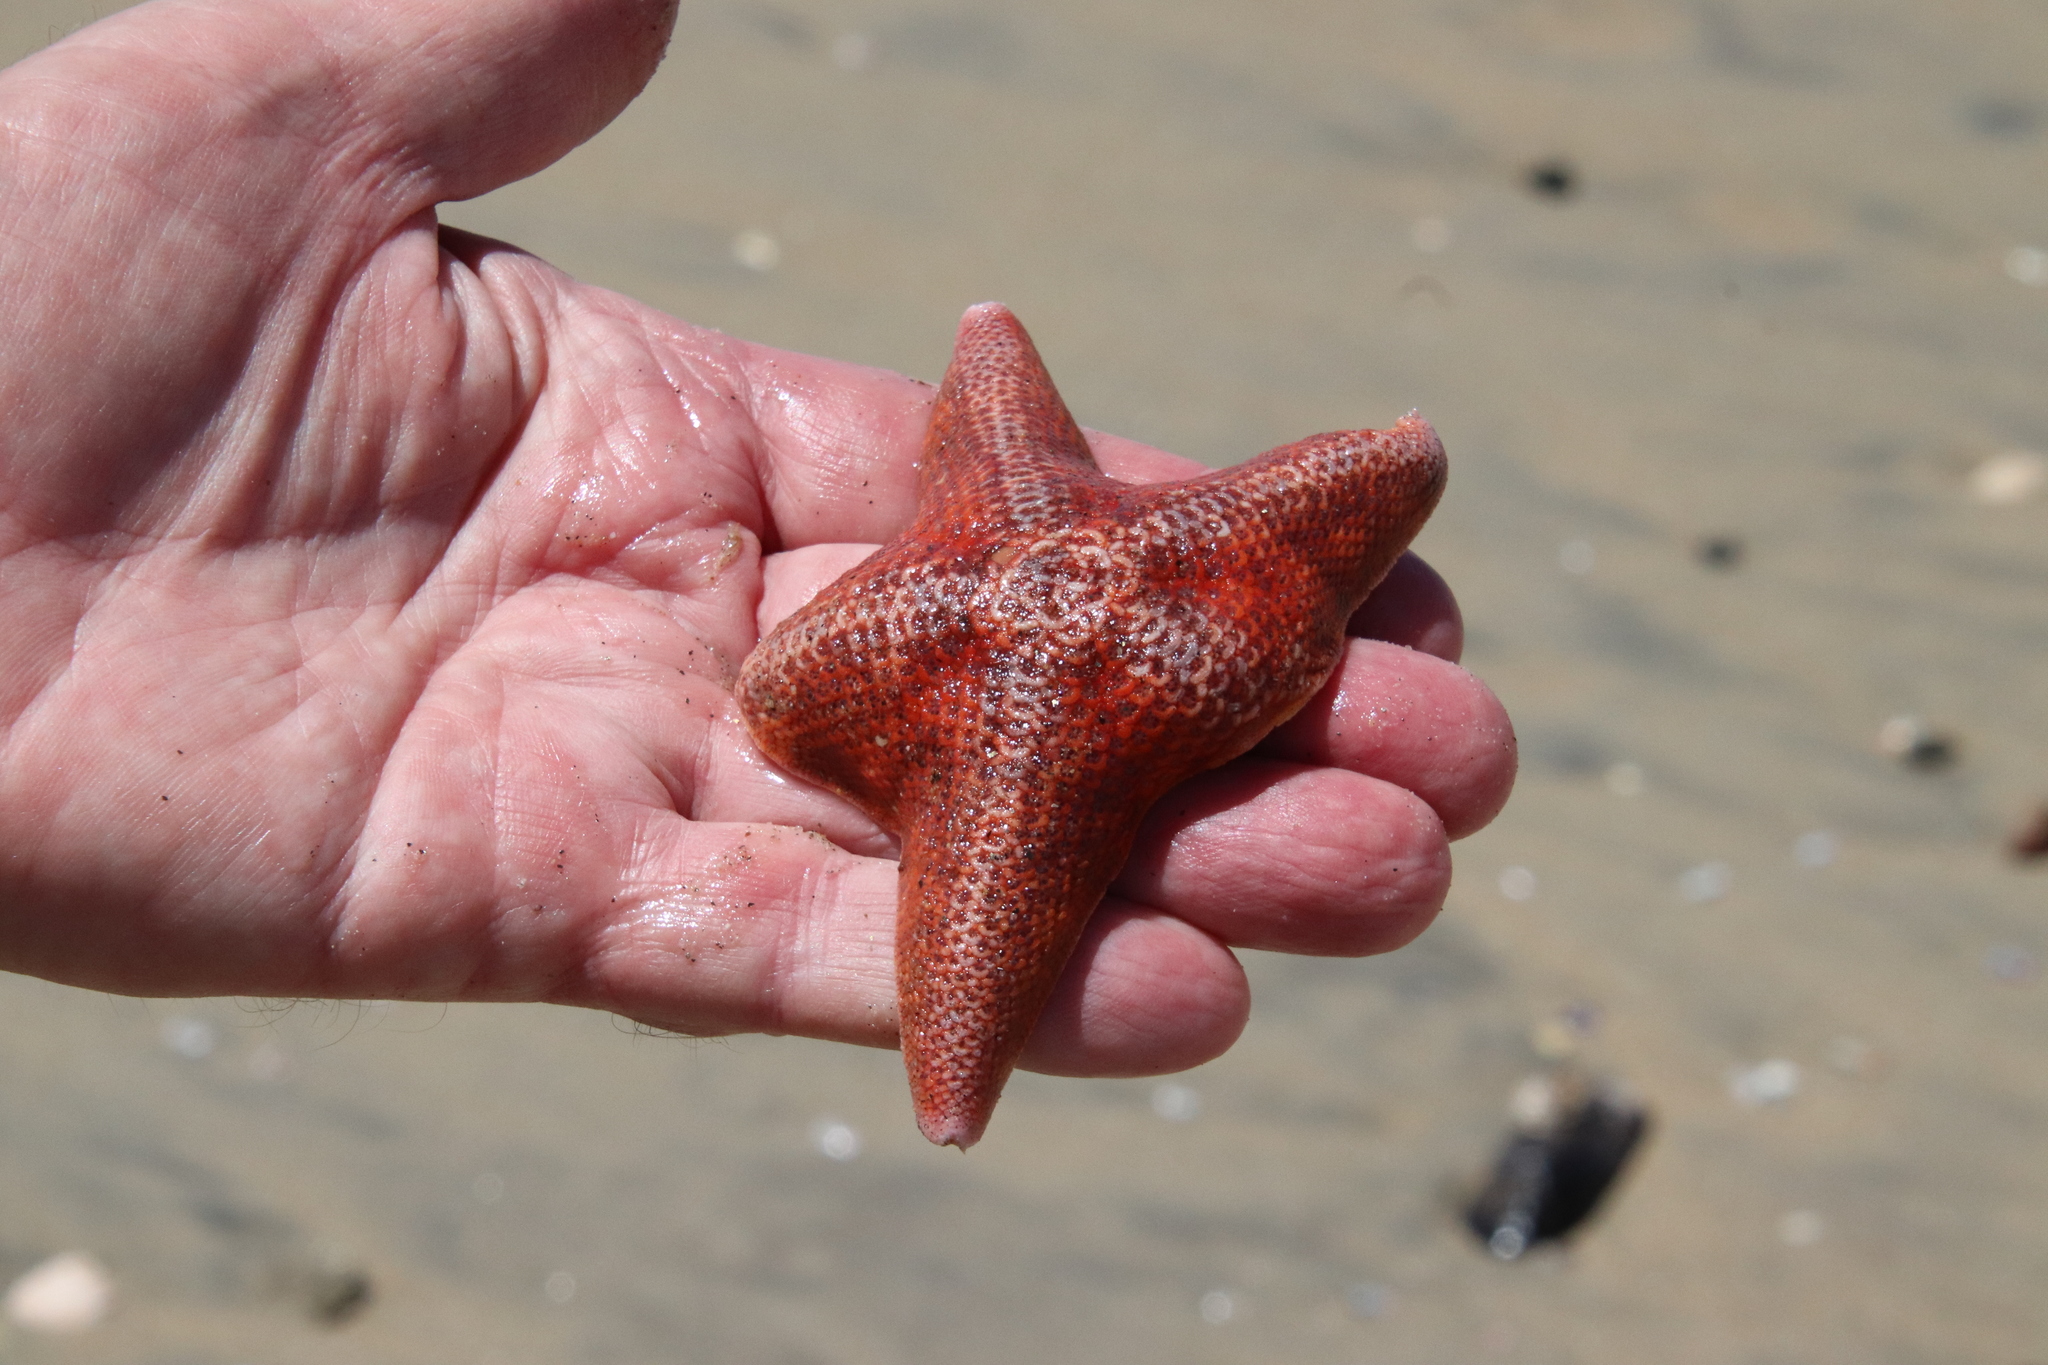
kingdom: Animalia
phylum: Echinodermata
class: Asteroidea
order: Valvatida
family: Asterinidae
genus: Patiria
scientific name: Patiria miniata
